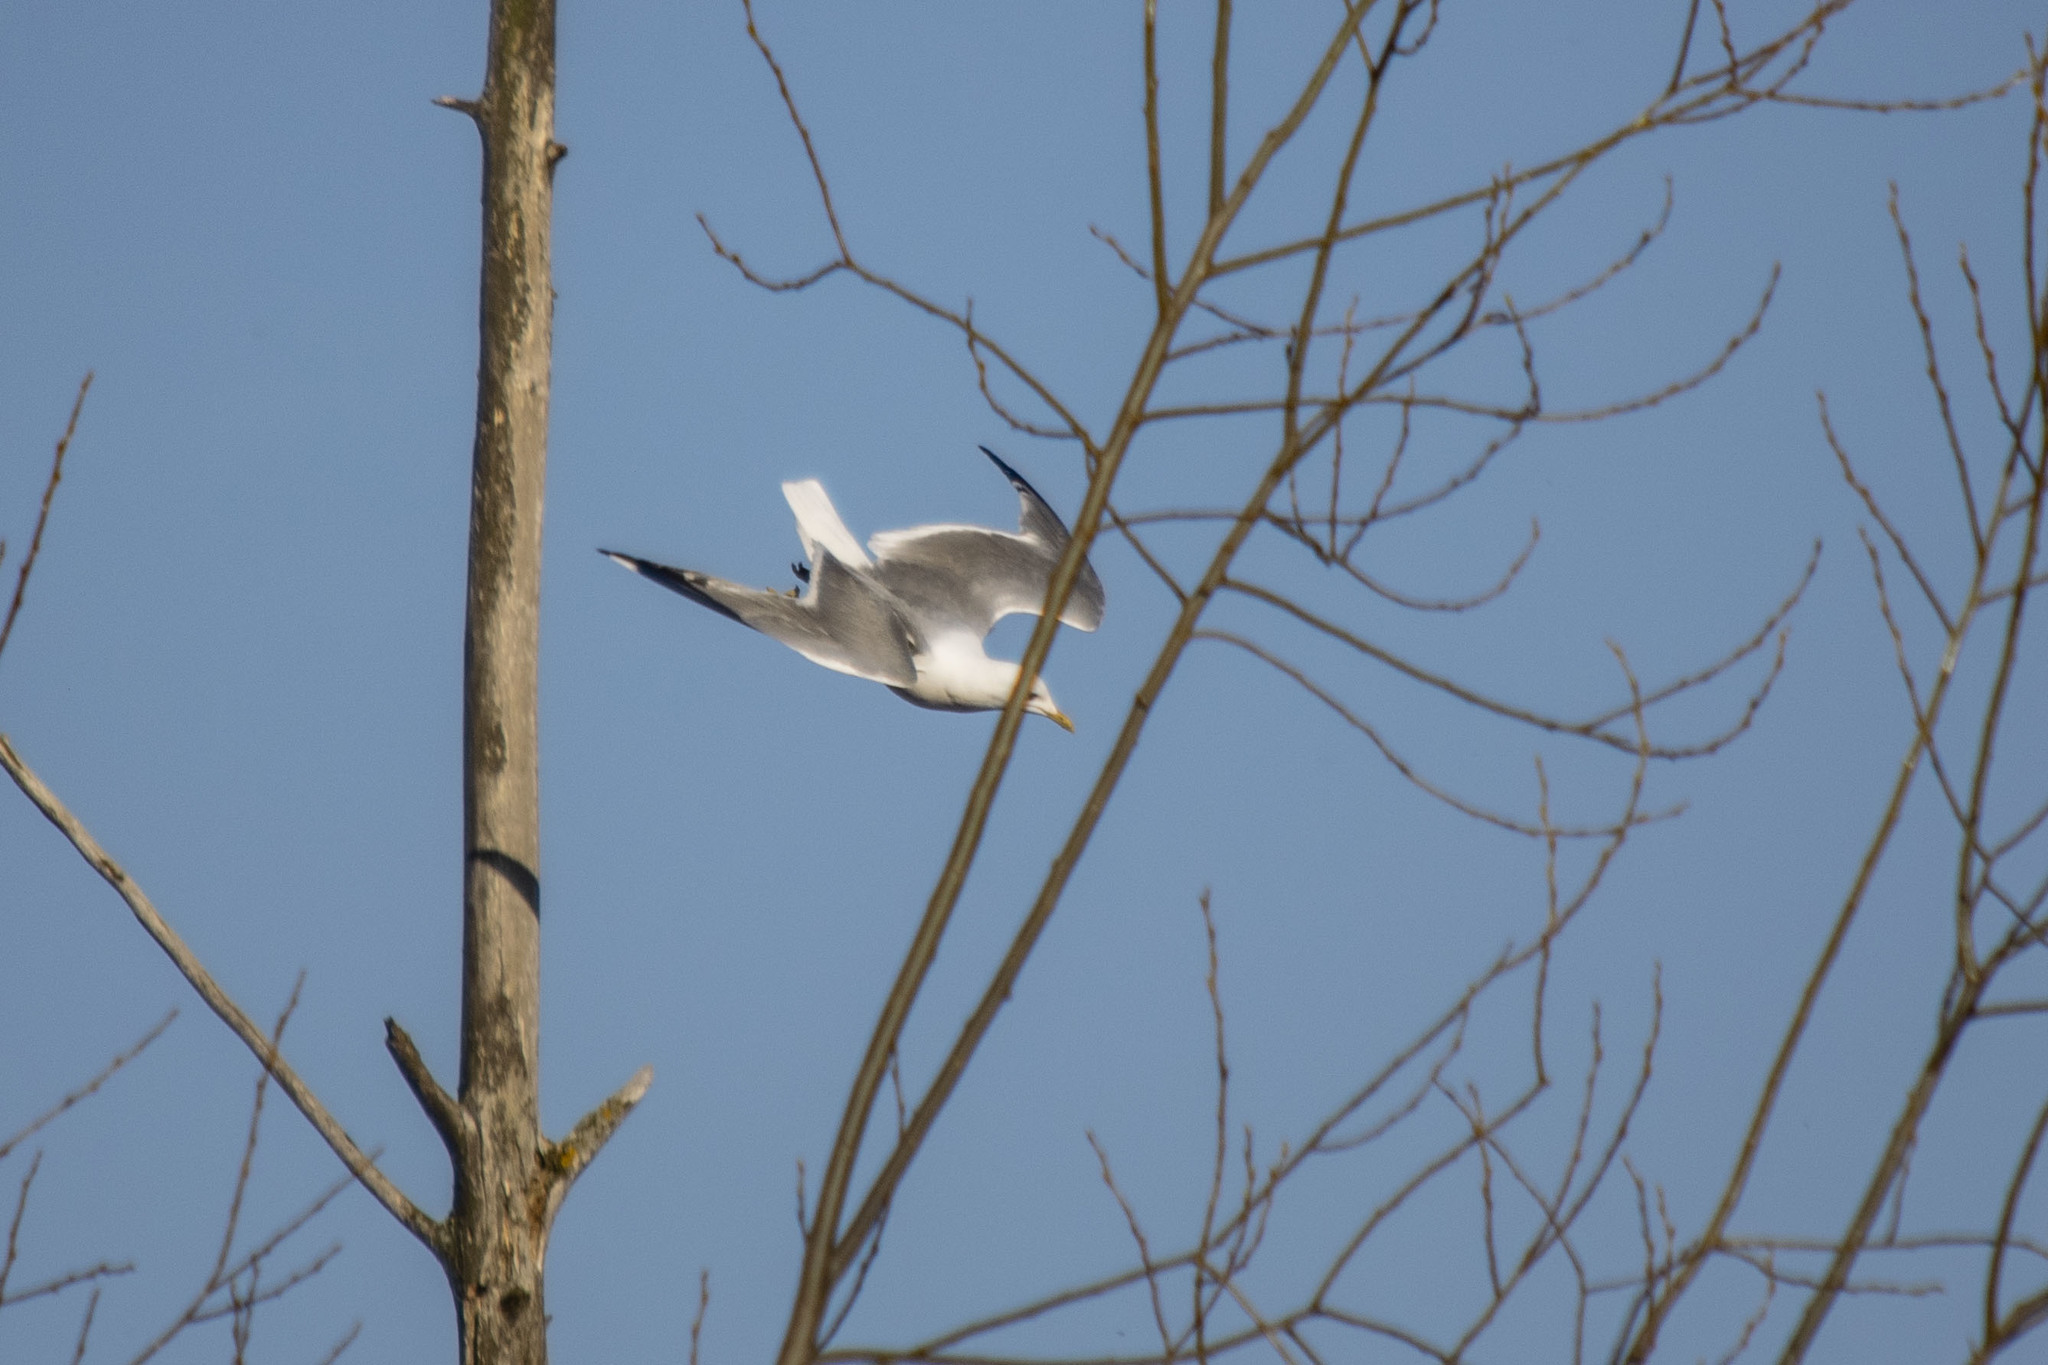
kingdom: Animalia
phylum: Chordata
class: Aves
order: Charadriiformes
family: Laridae
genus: Larus
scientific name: Larus canus
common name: Mew gull
